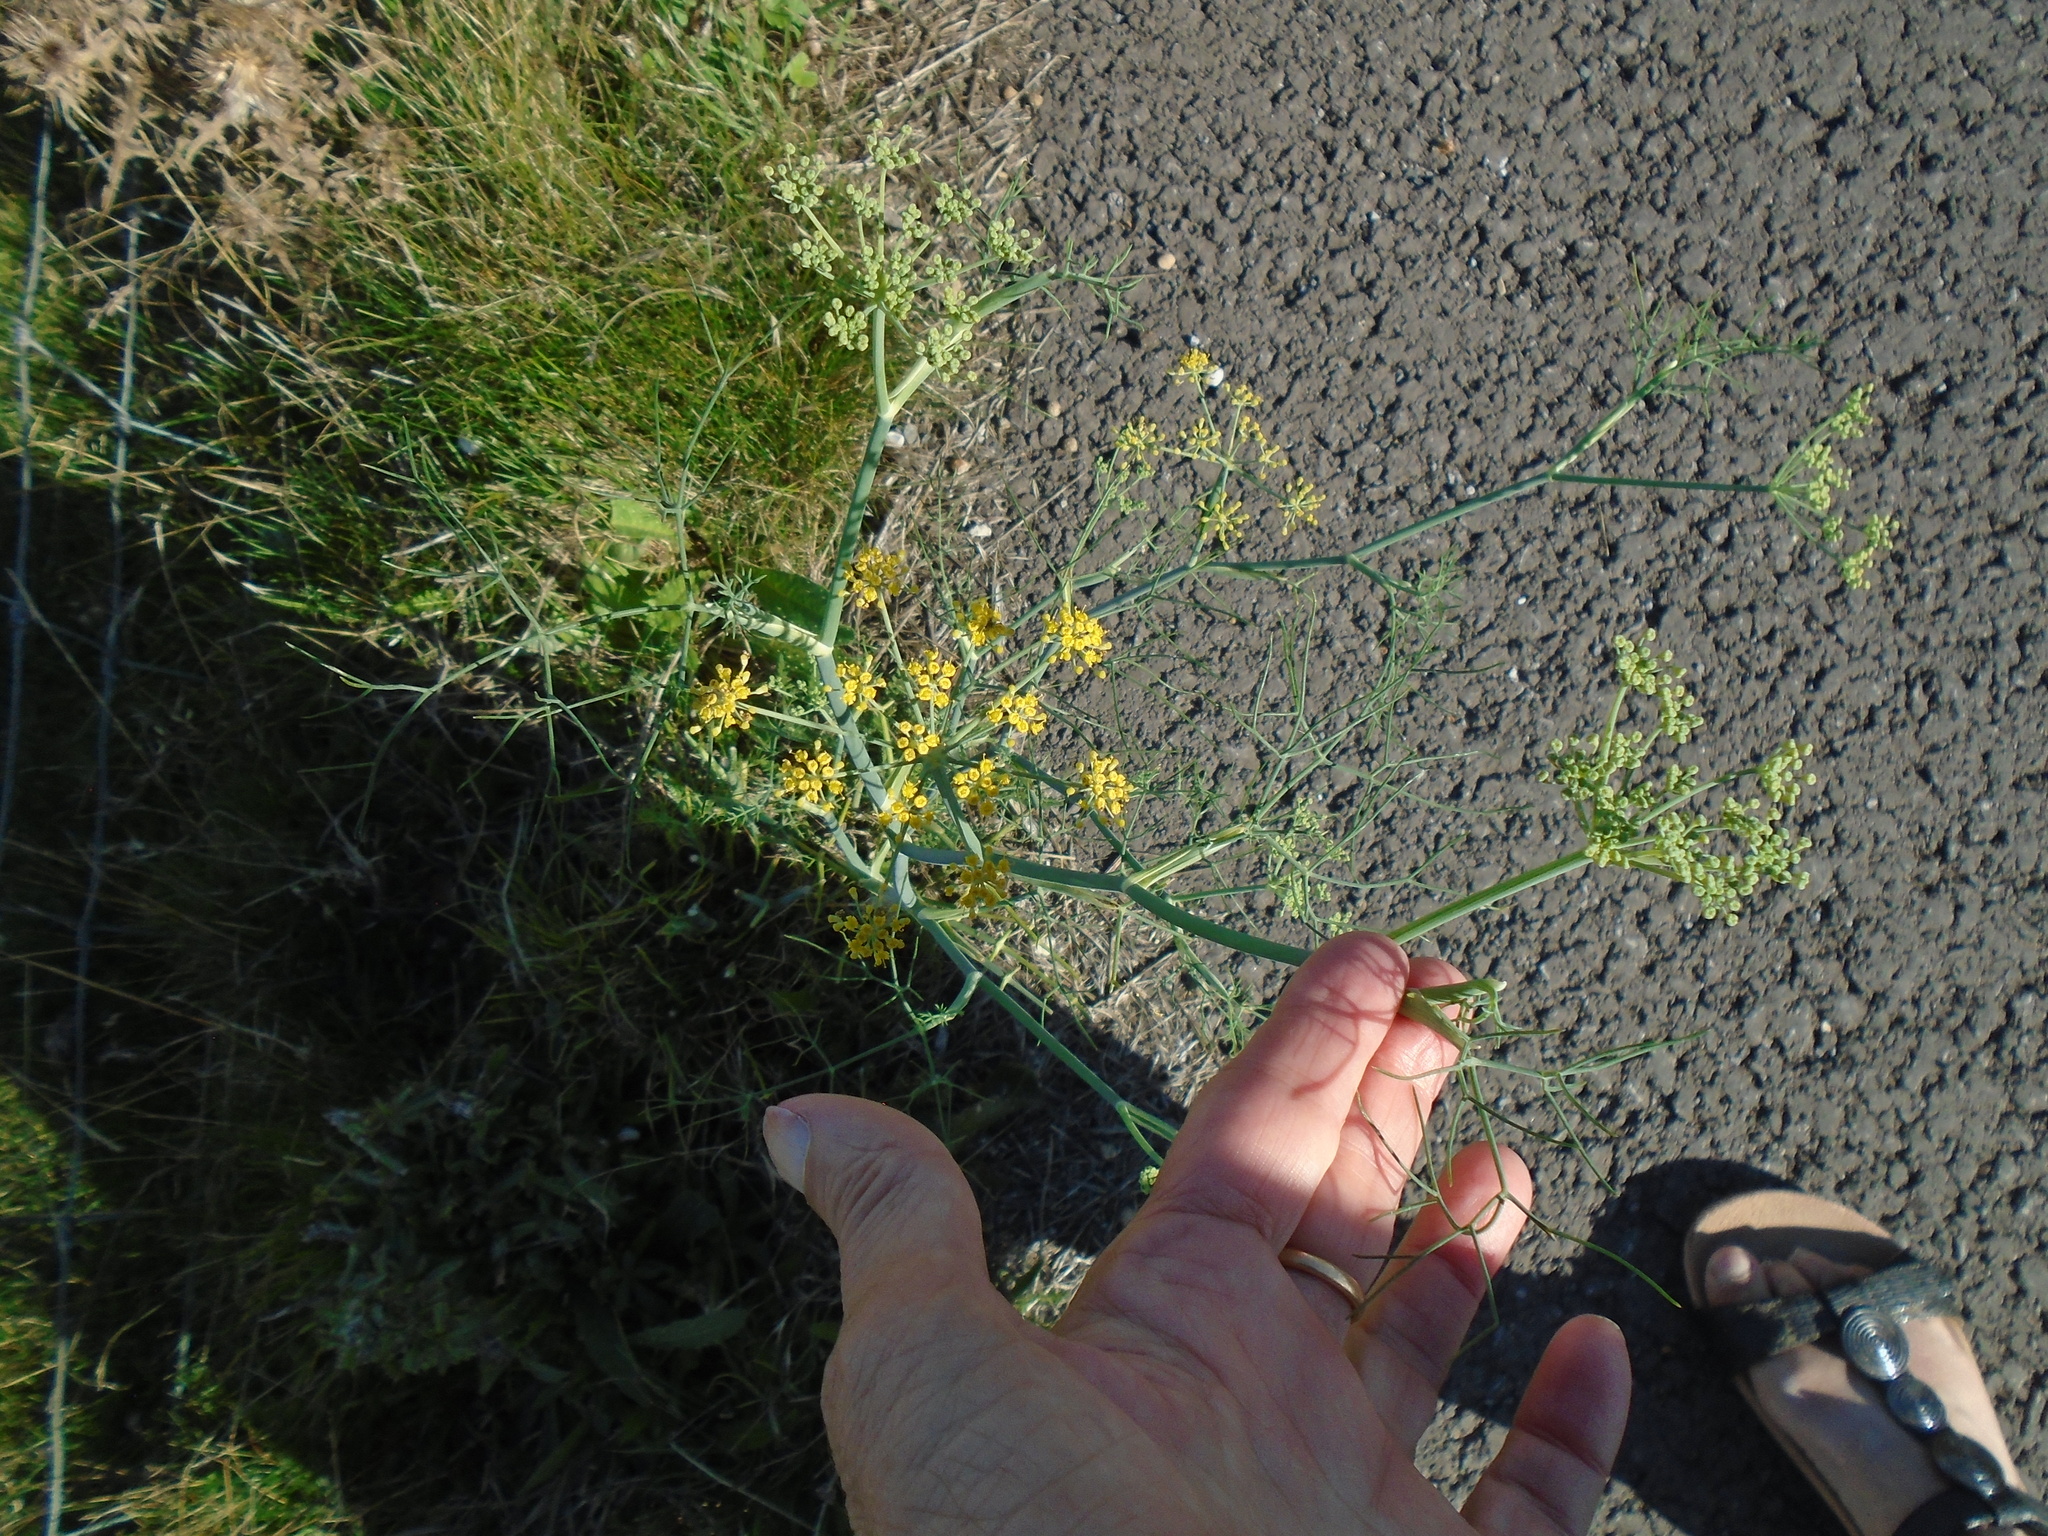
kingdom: Plantae
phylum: Tracheophyta
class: Magnoliopsida
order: Apiales
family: Apiaceae
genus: Foeniculum
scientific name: Foeniculum vulgare
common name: Fennel
